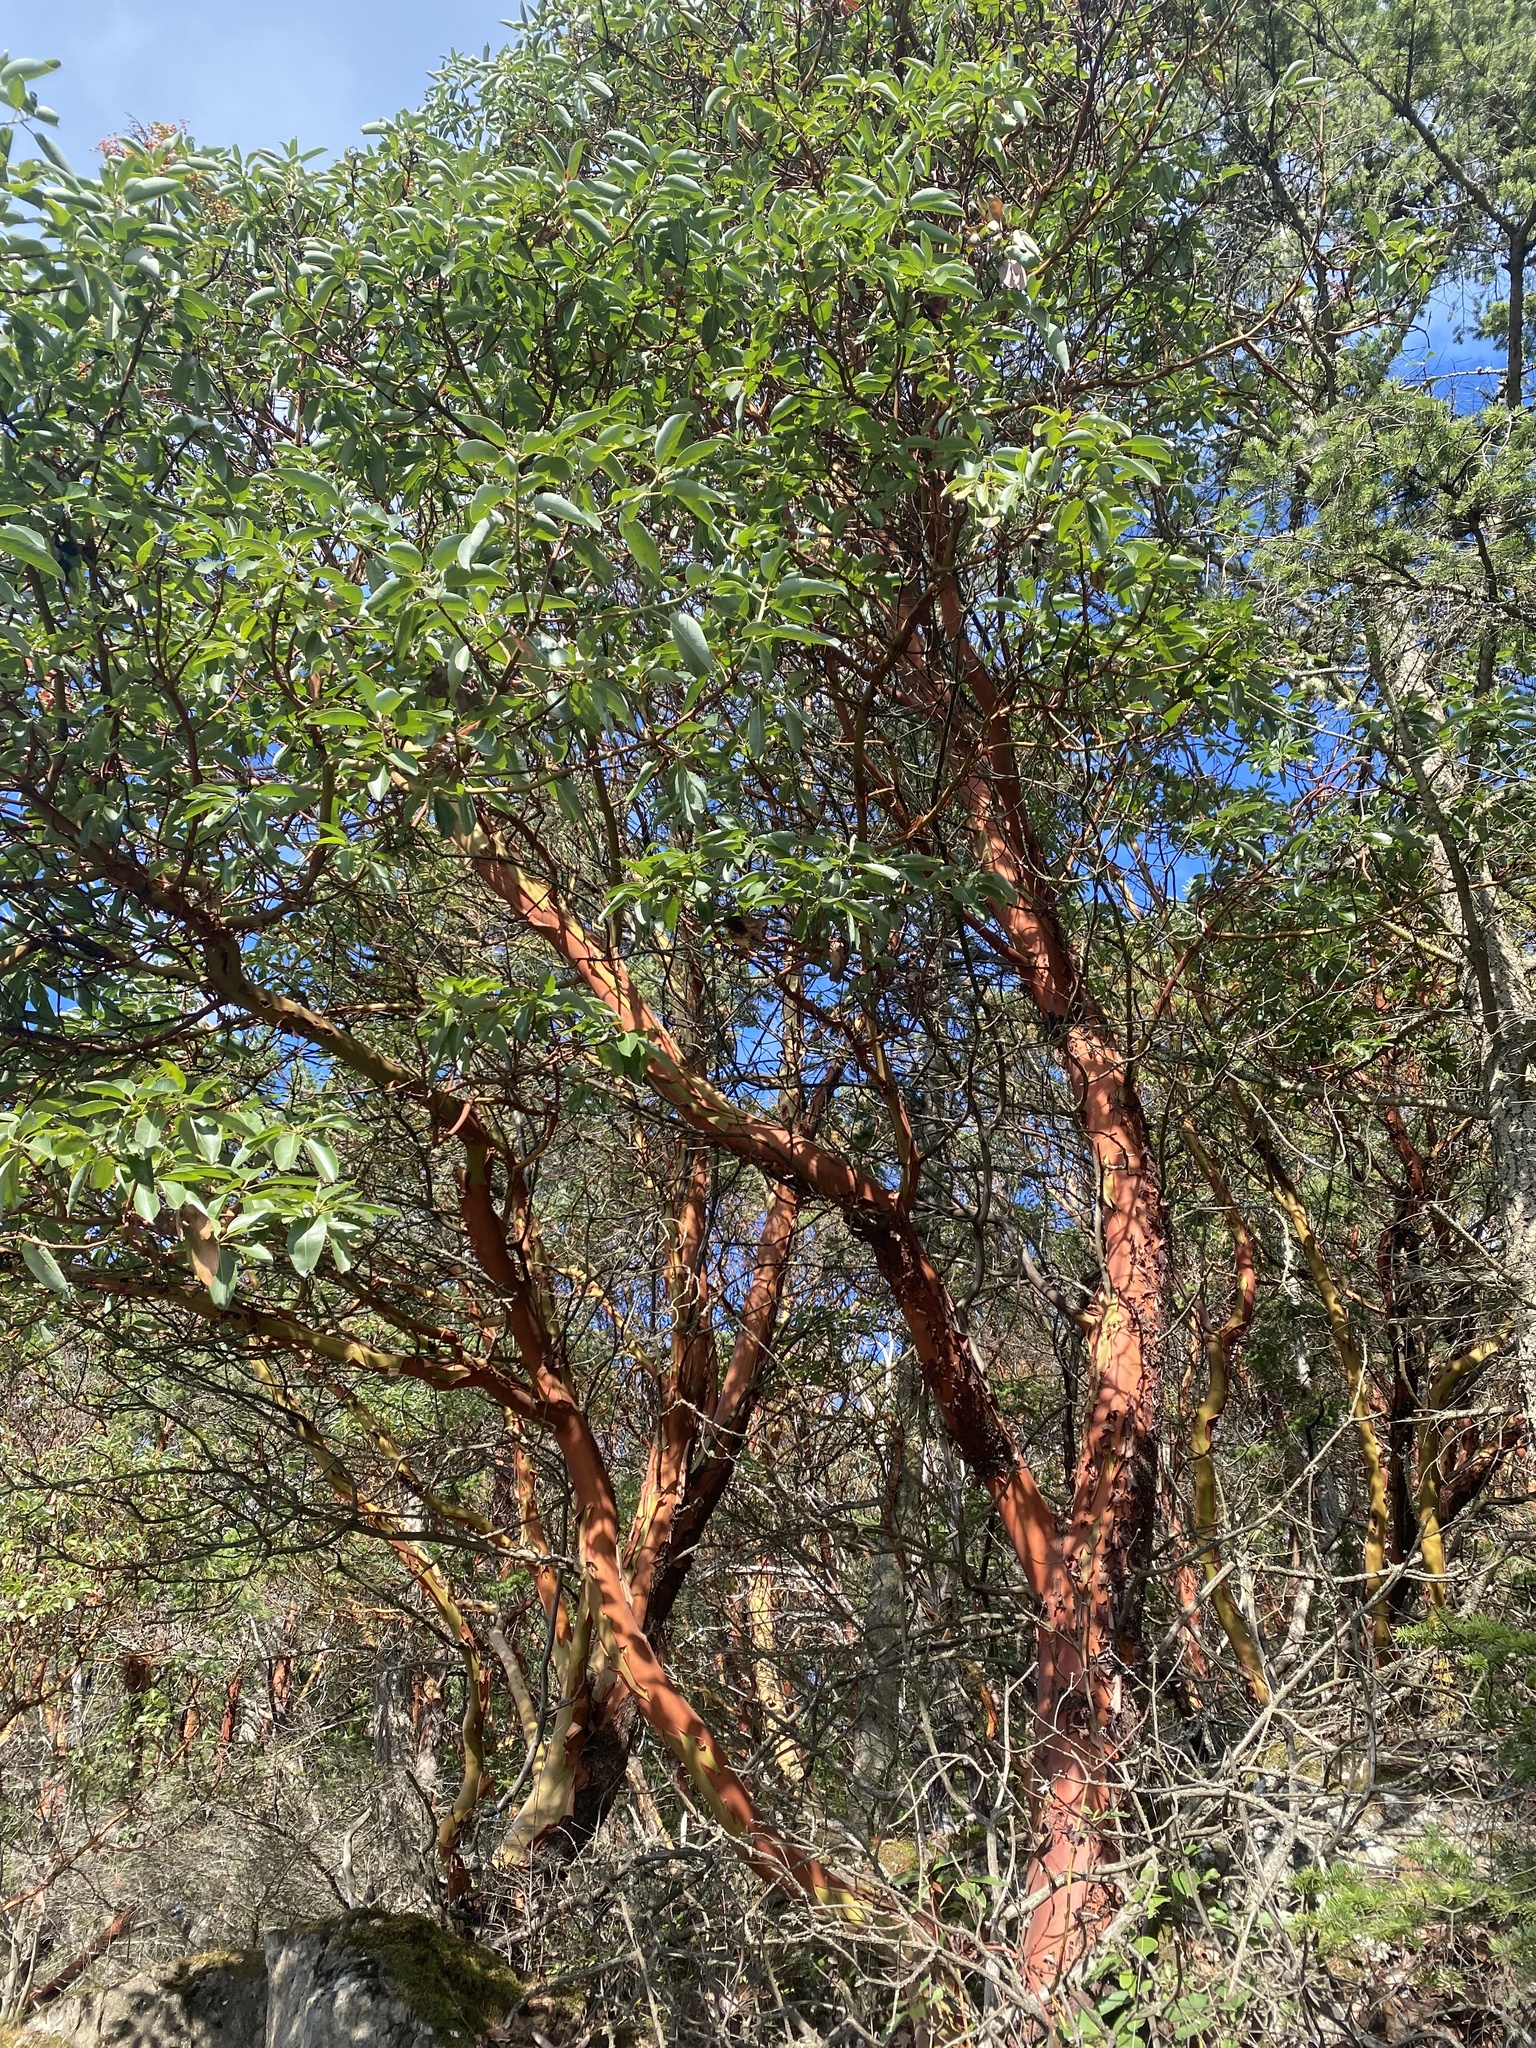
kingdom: Plantae
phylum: Tracheophyta
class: Magnoliopsida
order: Ericales
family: Ericaceae
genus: Arbutus
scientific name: Arbutus menziesii
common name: Pacific madrone
